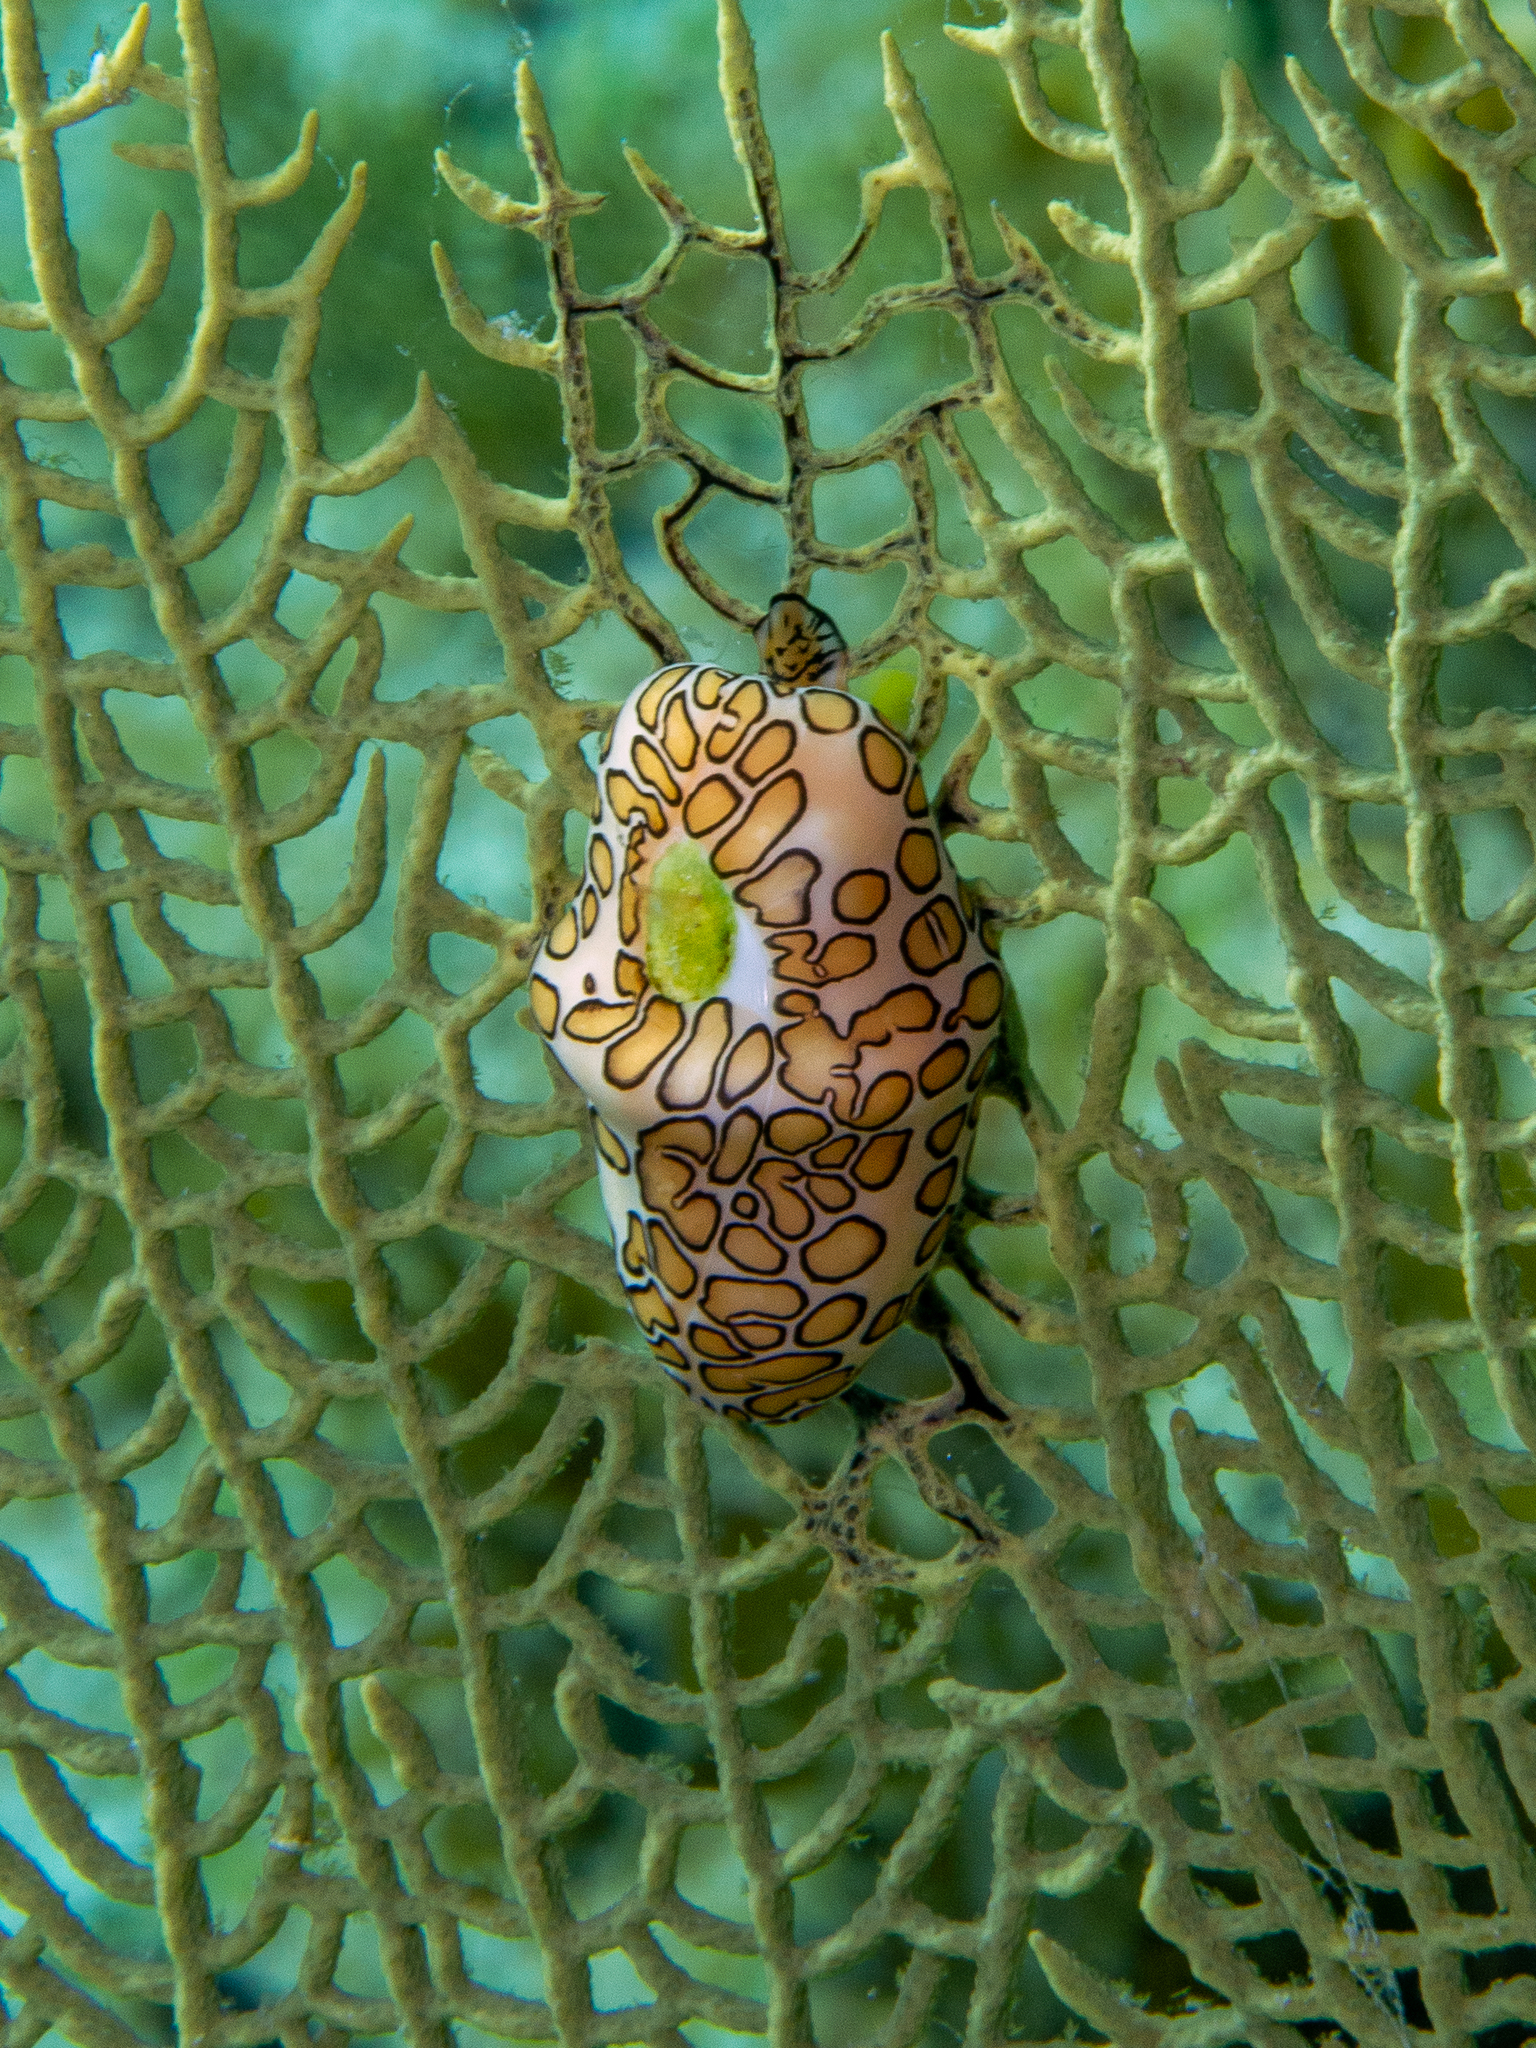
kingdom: Animalia
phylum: Mollusca
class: Gastropoda
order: Littorinimorpha
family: Ovulidae
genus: Cyphoma
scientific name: Cyphoma gibbosum
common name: Flamingo tongue
